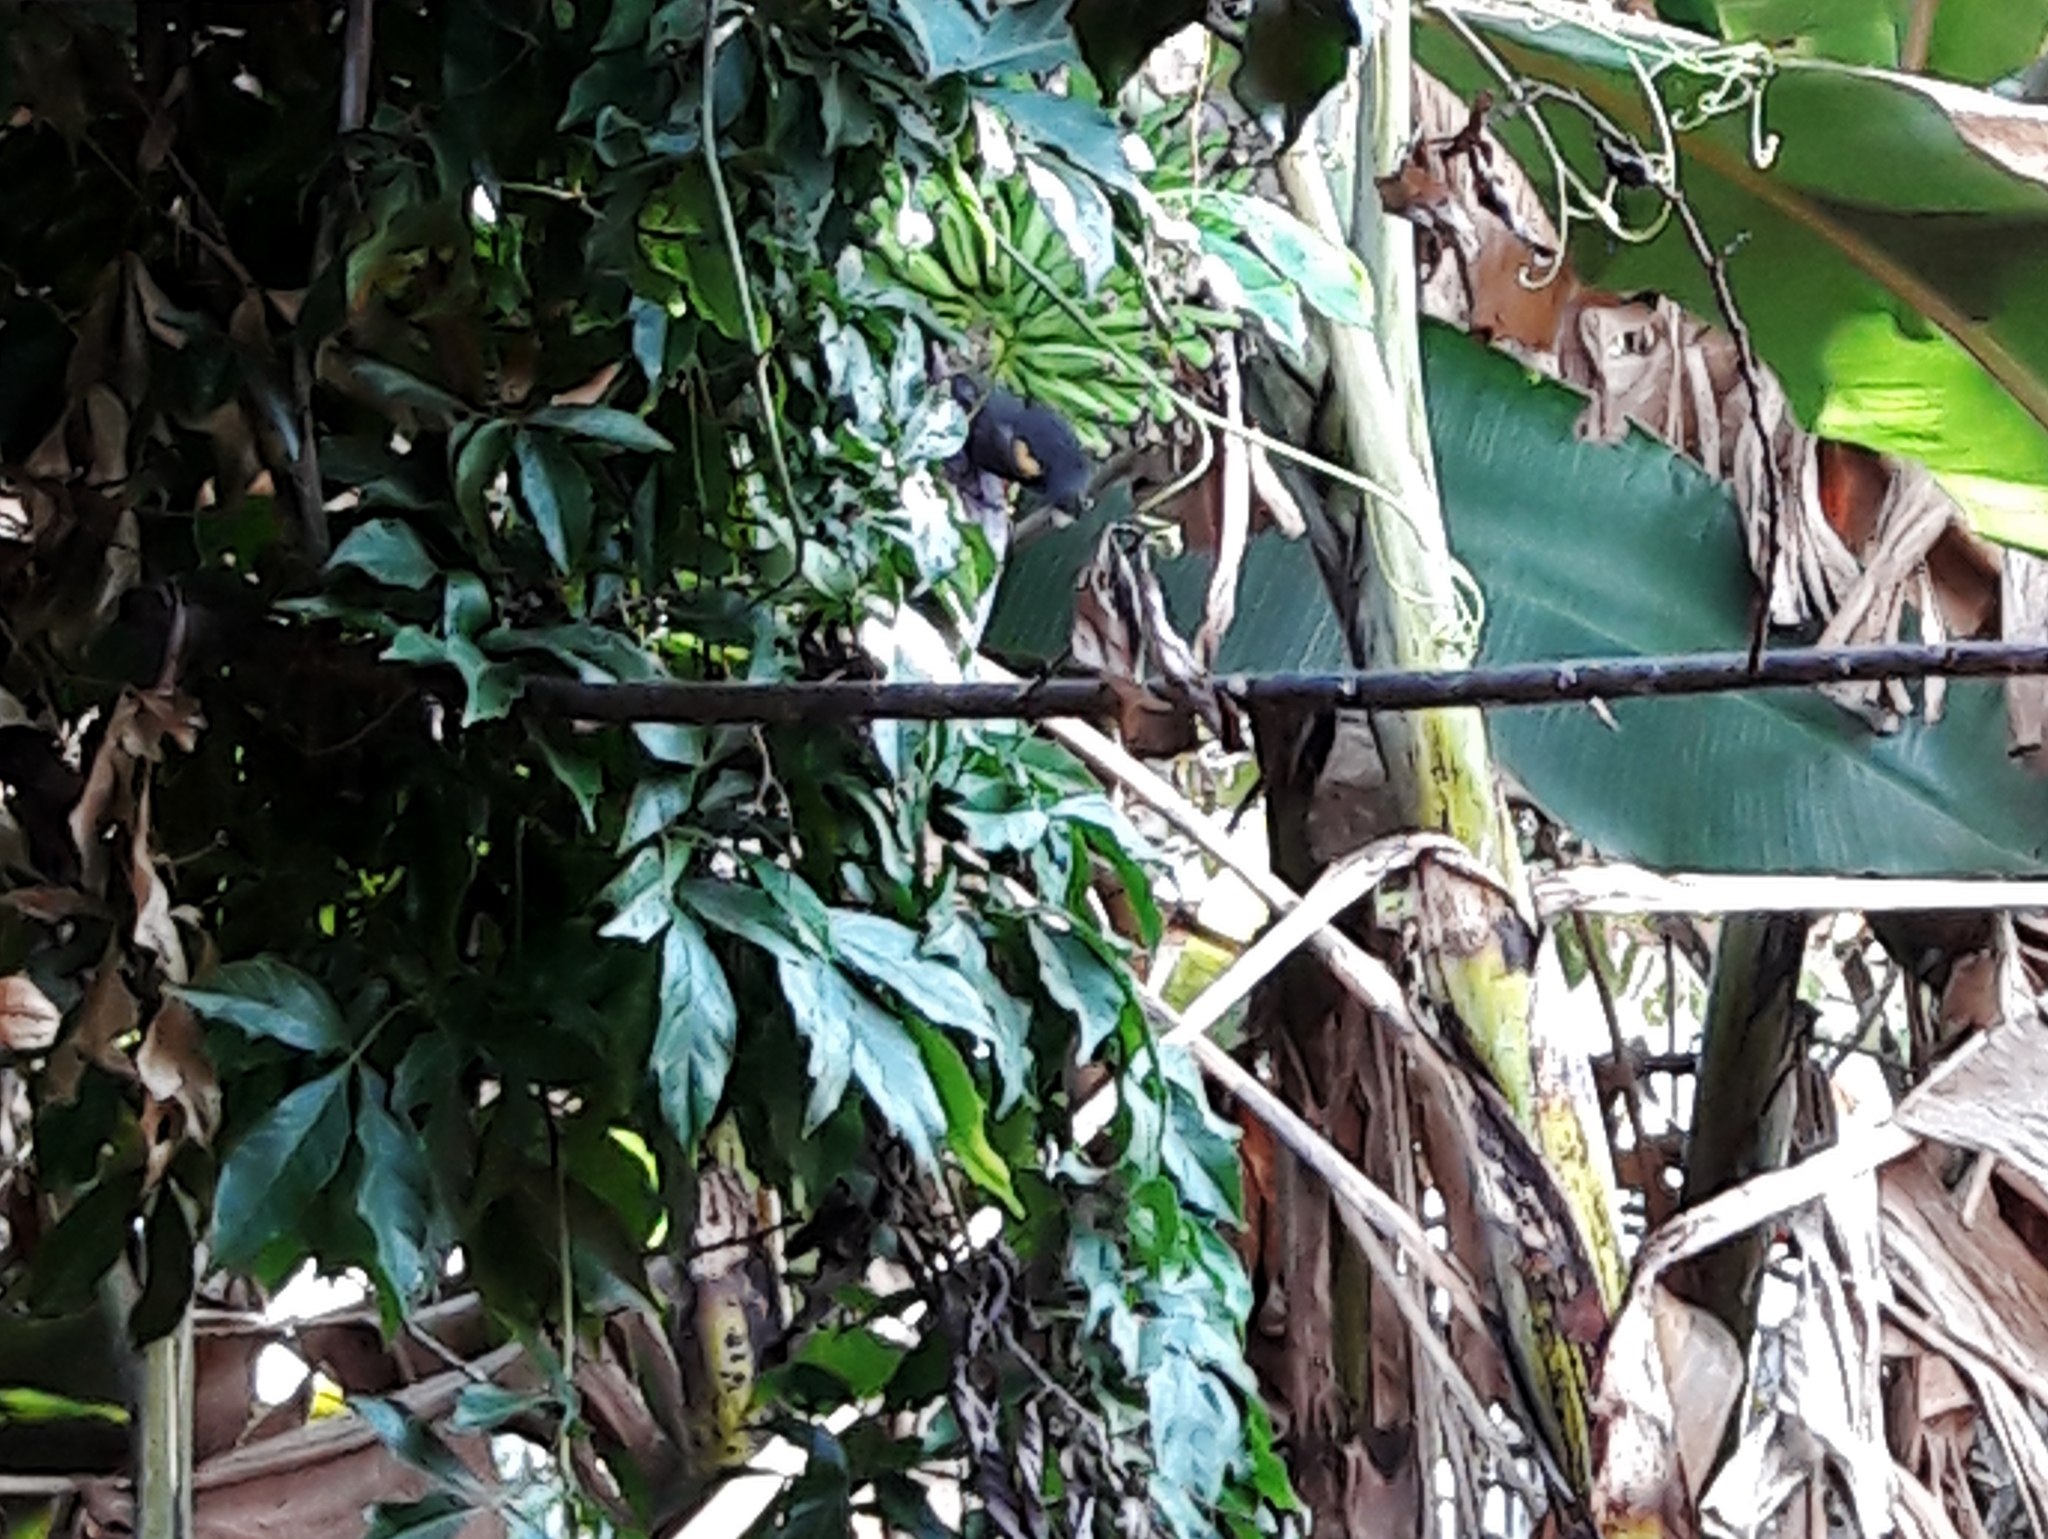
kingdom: Animalia
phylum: Chordata
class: Aves
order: Passeriformes
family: Icteridae
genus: Icterus
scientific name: Icterus cayanensis
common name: Epaulet oriole
